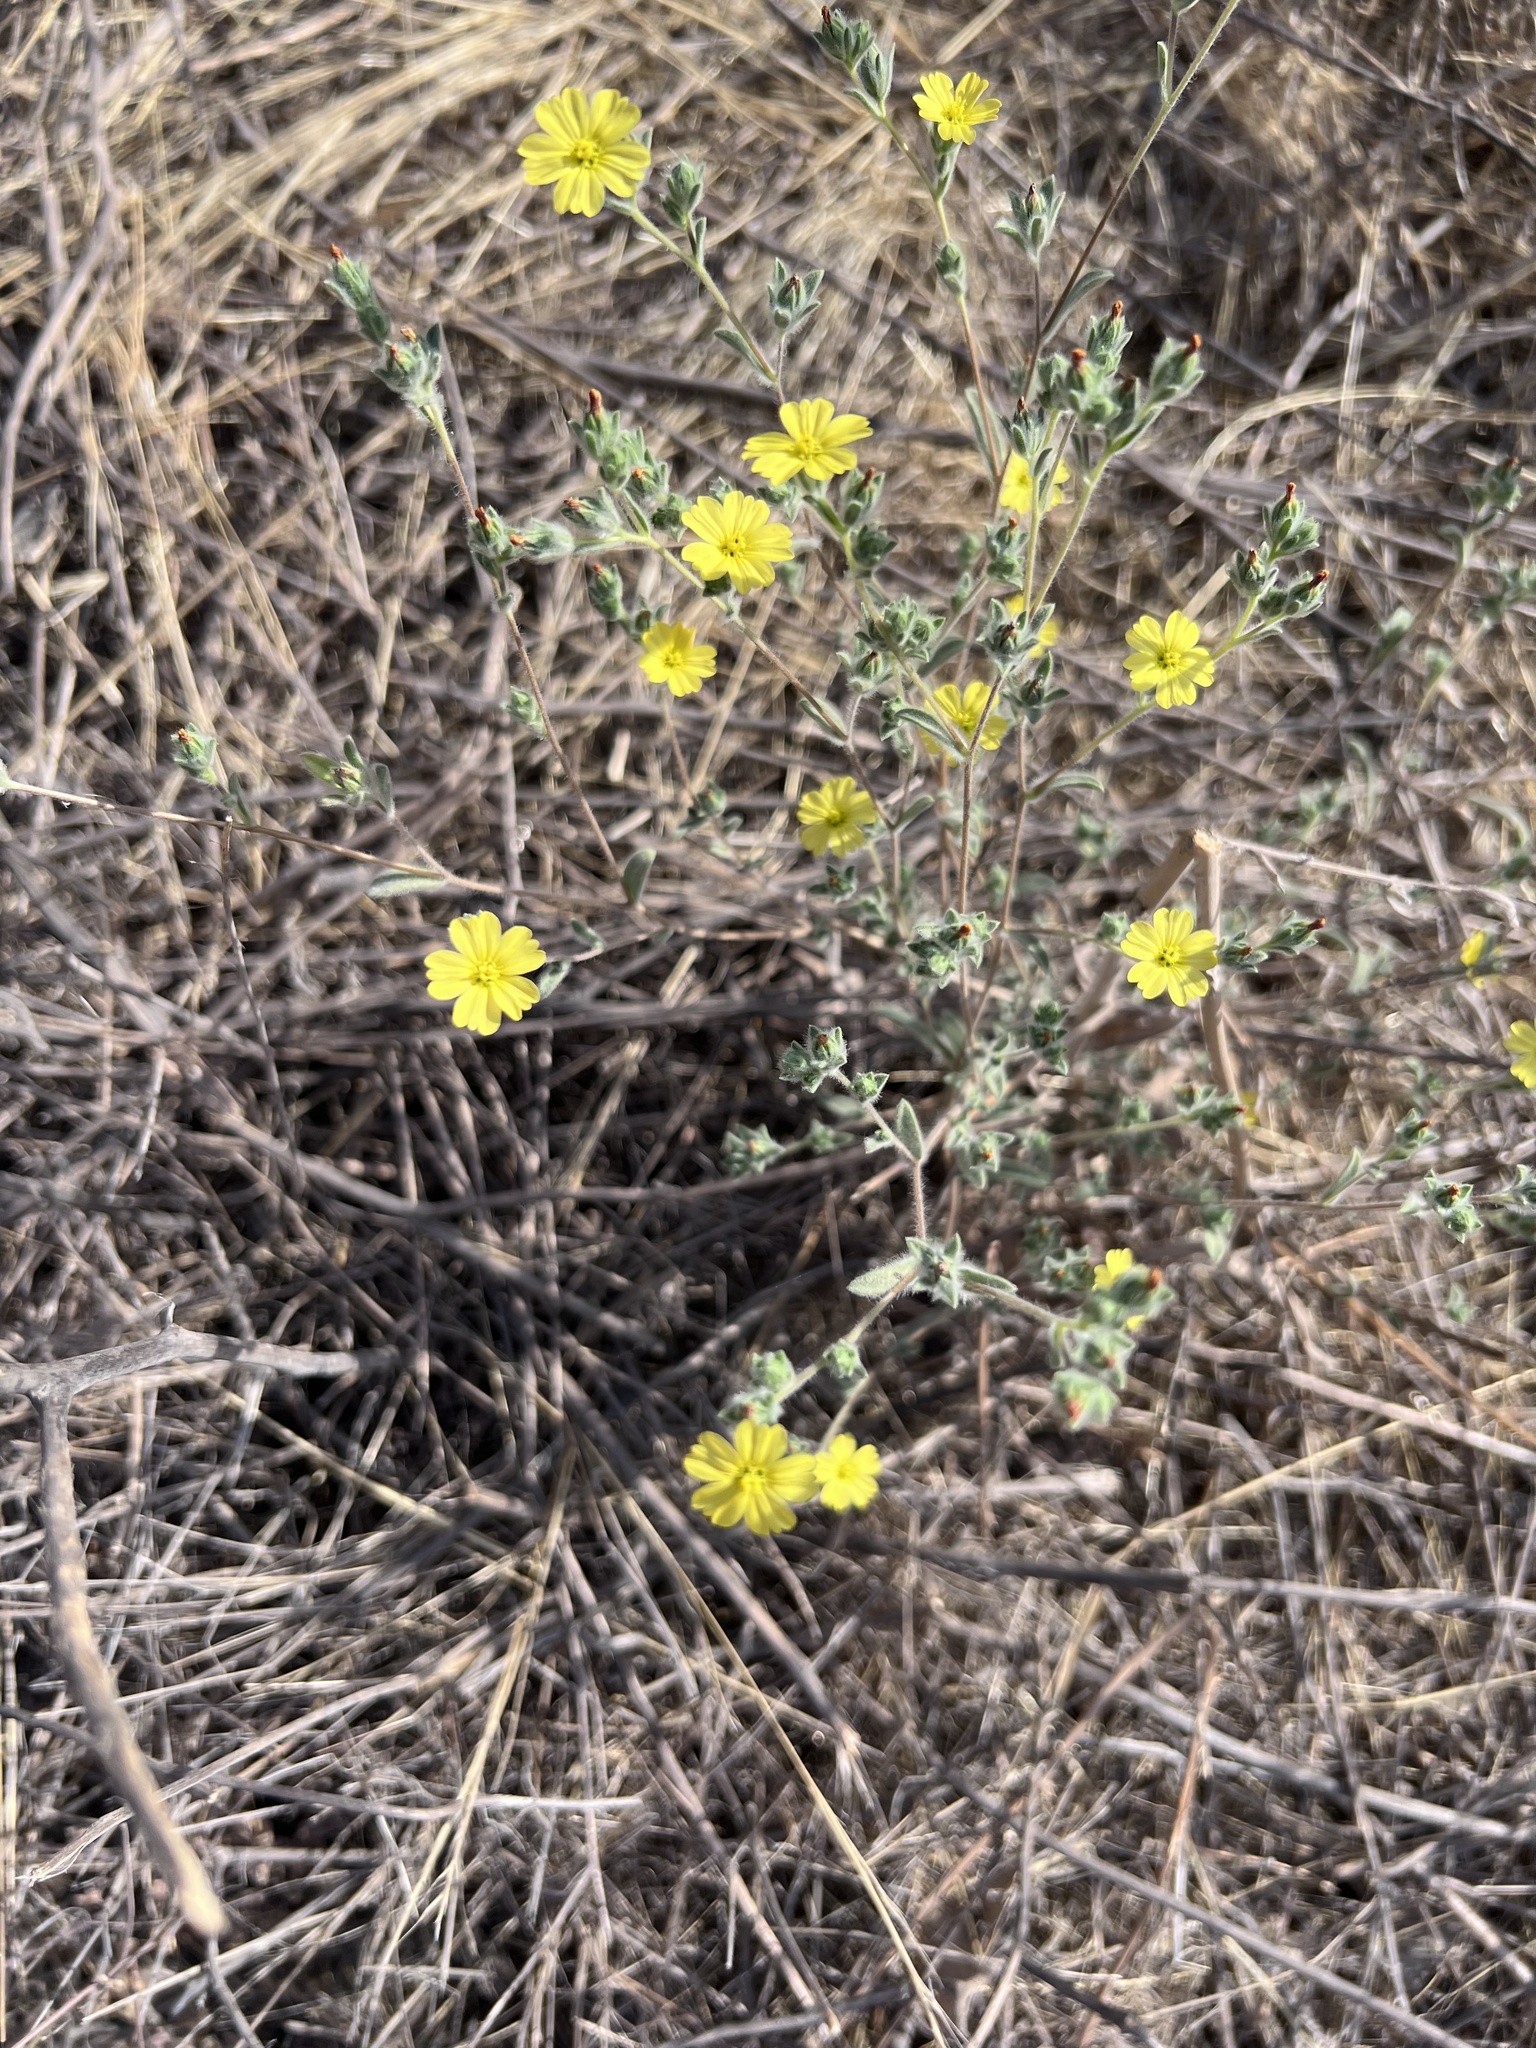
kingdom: Plantae
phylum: Tracheophyta
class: Magnoliopsida
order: Asterales
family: Asteraceae
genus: Lagophylla
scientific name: Lagophylla ramosissima
